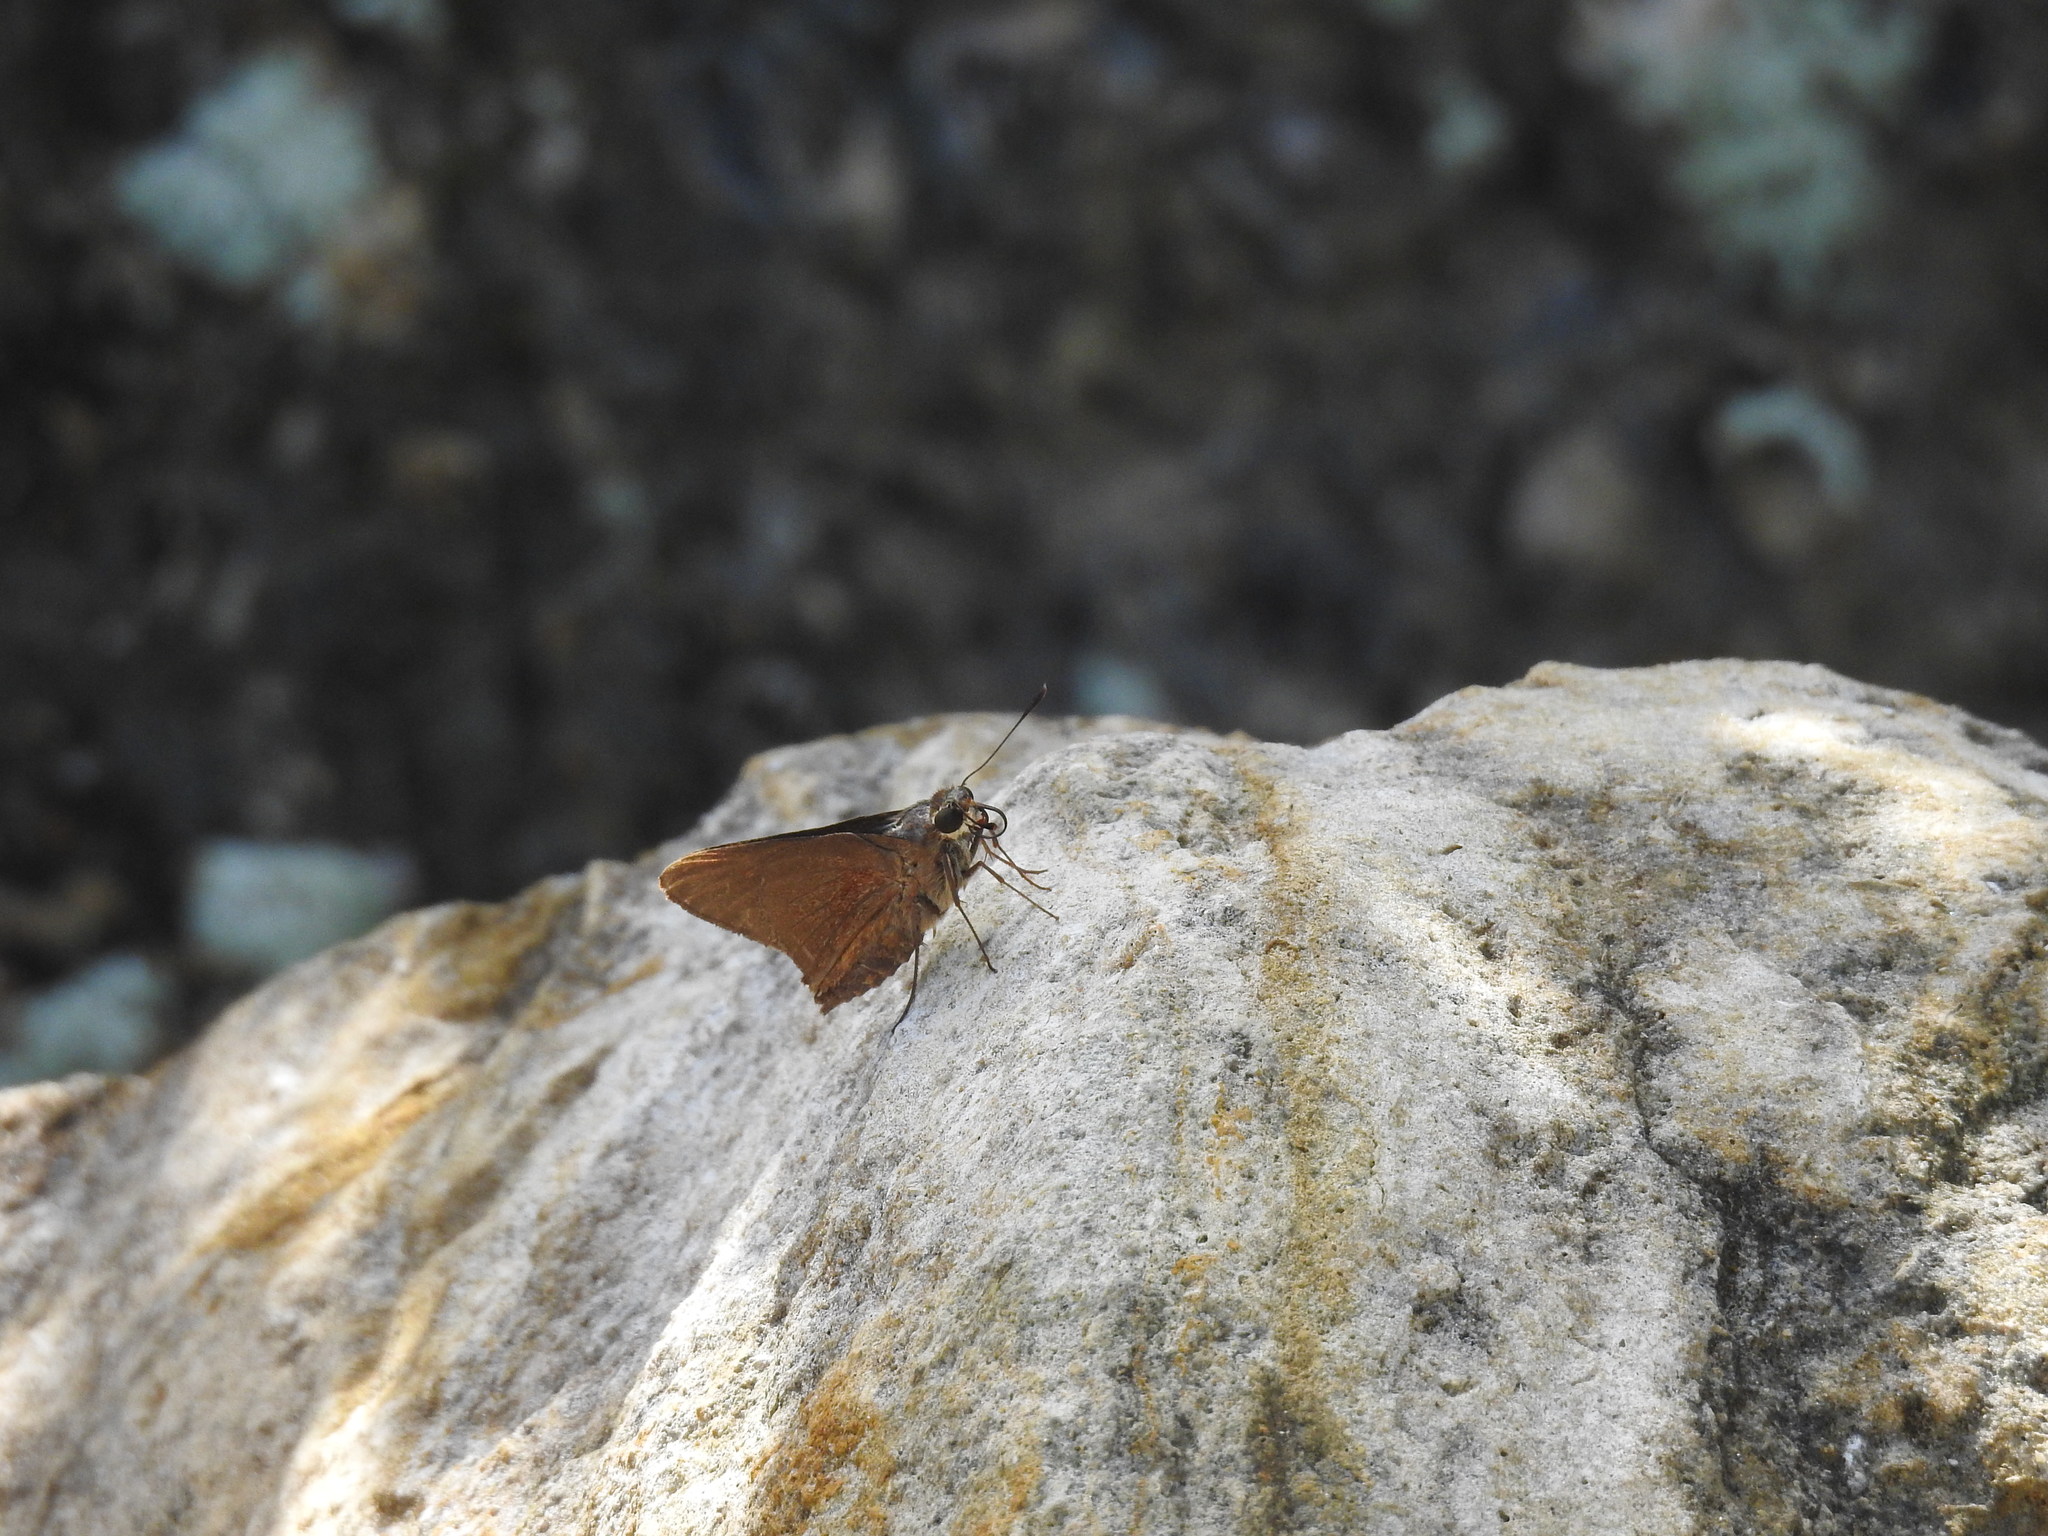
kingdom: Animalia
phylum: Arthropoda
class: Insecta
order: Lepidoptera
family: Hesperiidae
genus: Asbolis
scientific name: Asbolis capucinus
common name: Monk skipper
